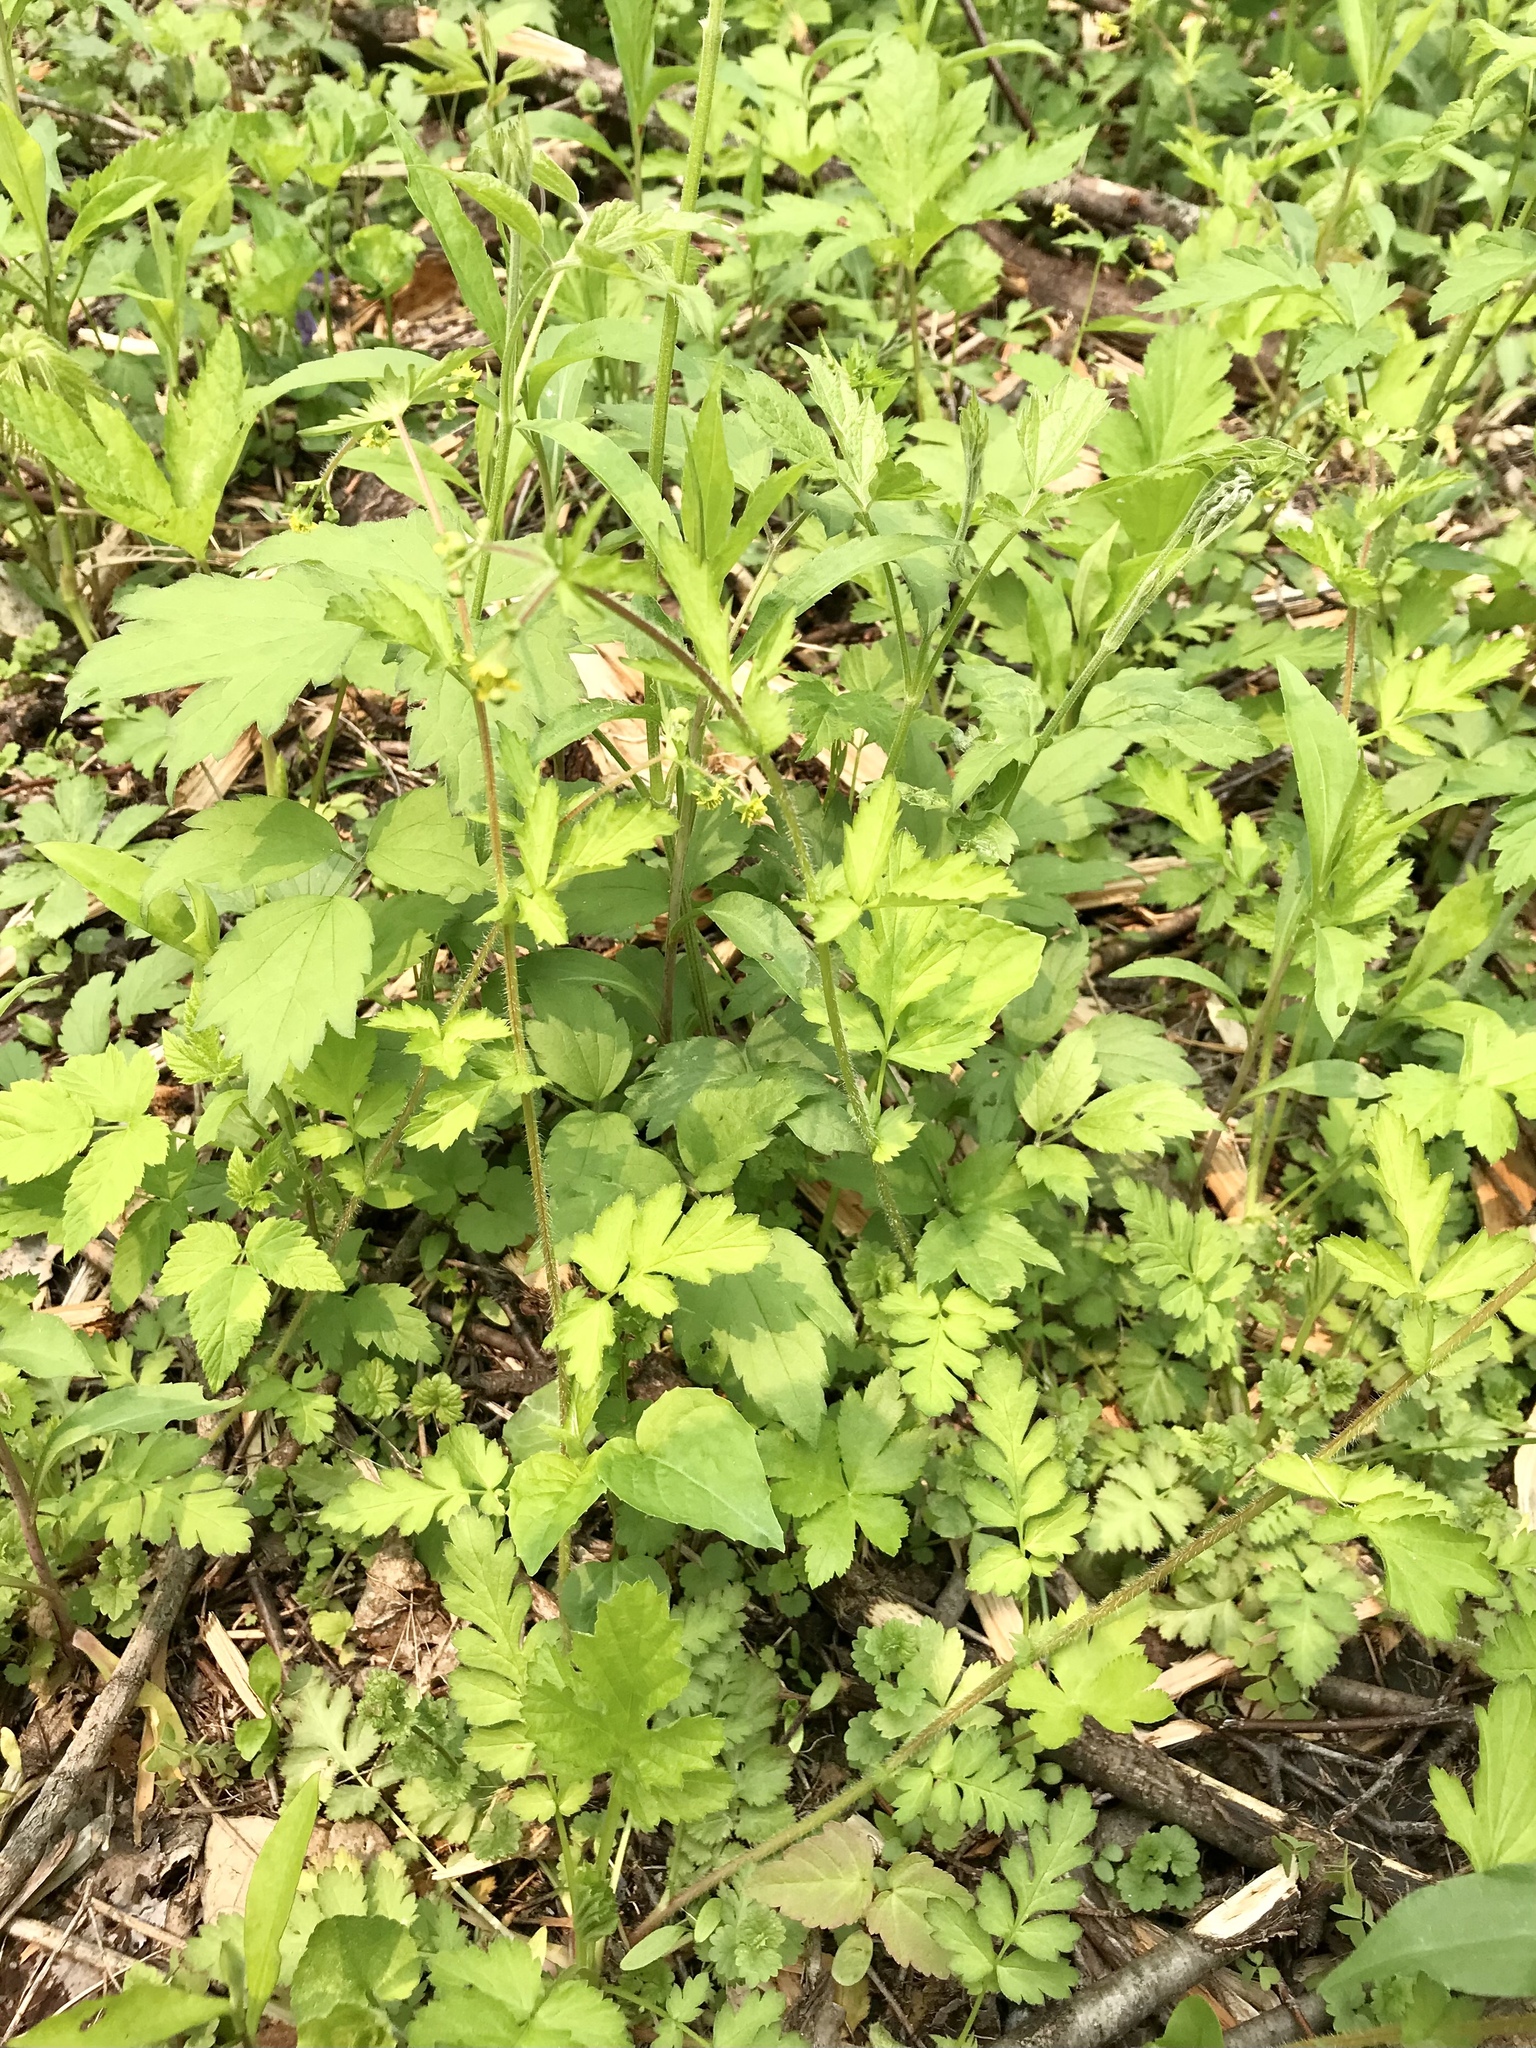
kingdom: Plantae
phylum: Tracheophyta
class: Magnoliopsida
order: Rosales
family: Rosaceae
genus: Geum
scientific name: Geum vernum
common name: Spring avens
